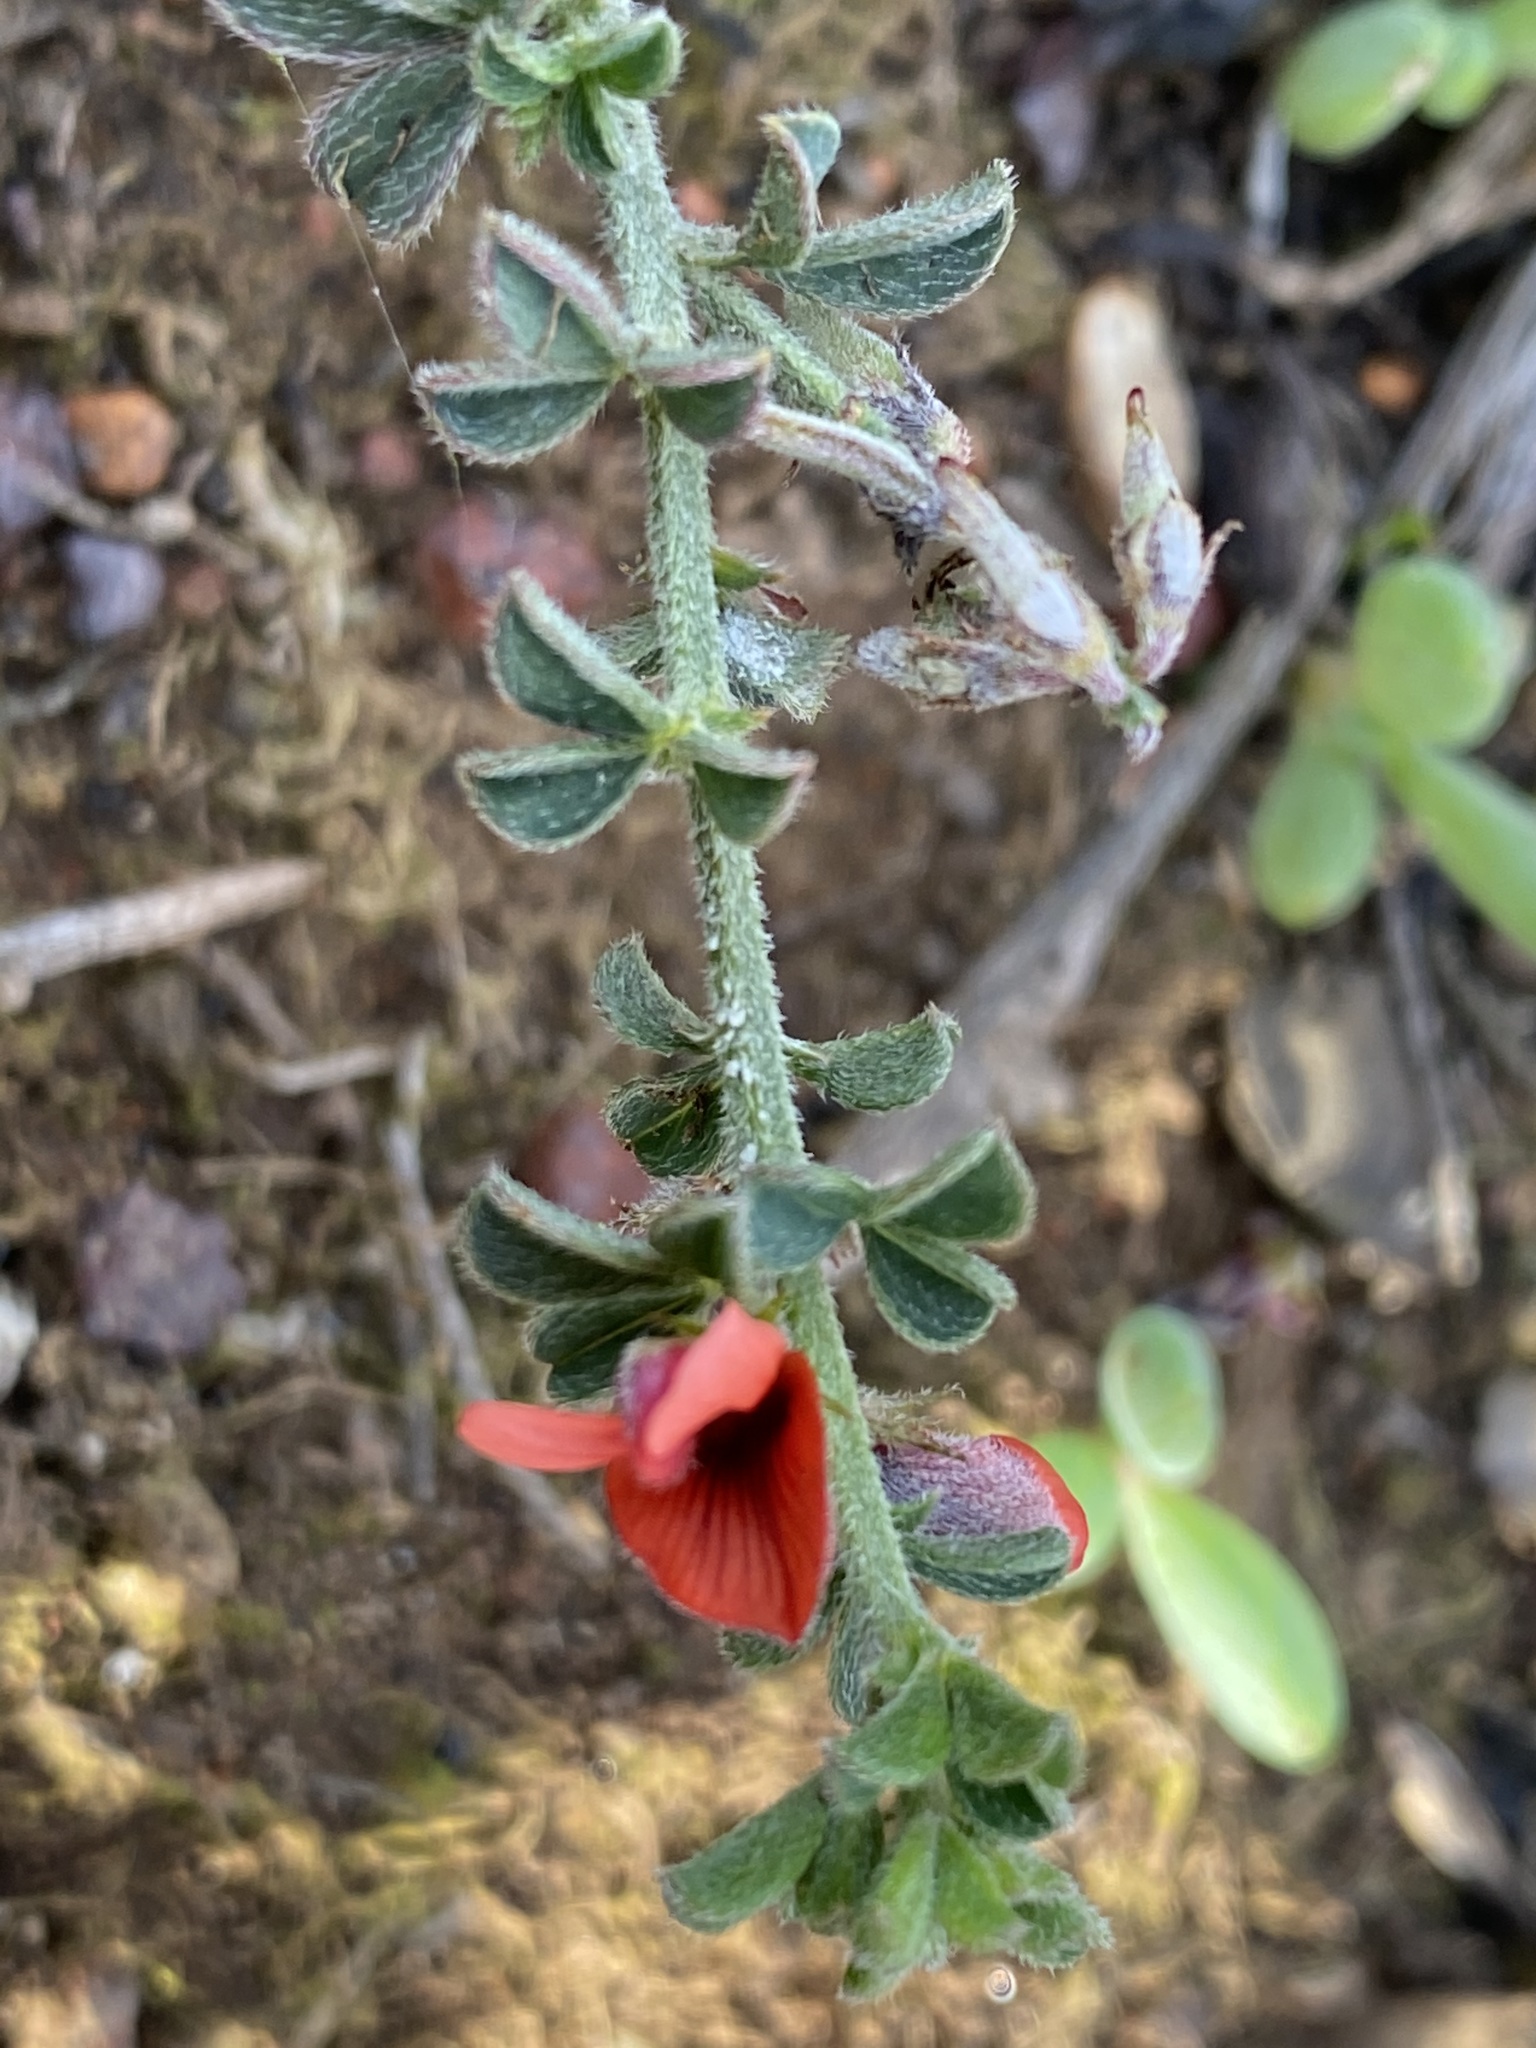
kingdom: Plantae
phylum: Tracheophyta
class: Magnoliopsida
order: Fabales
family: Fabaceae
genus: Indigofera
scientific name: Indigofera priorii
